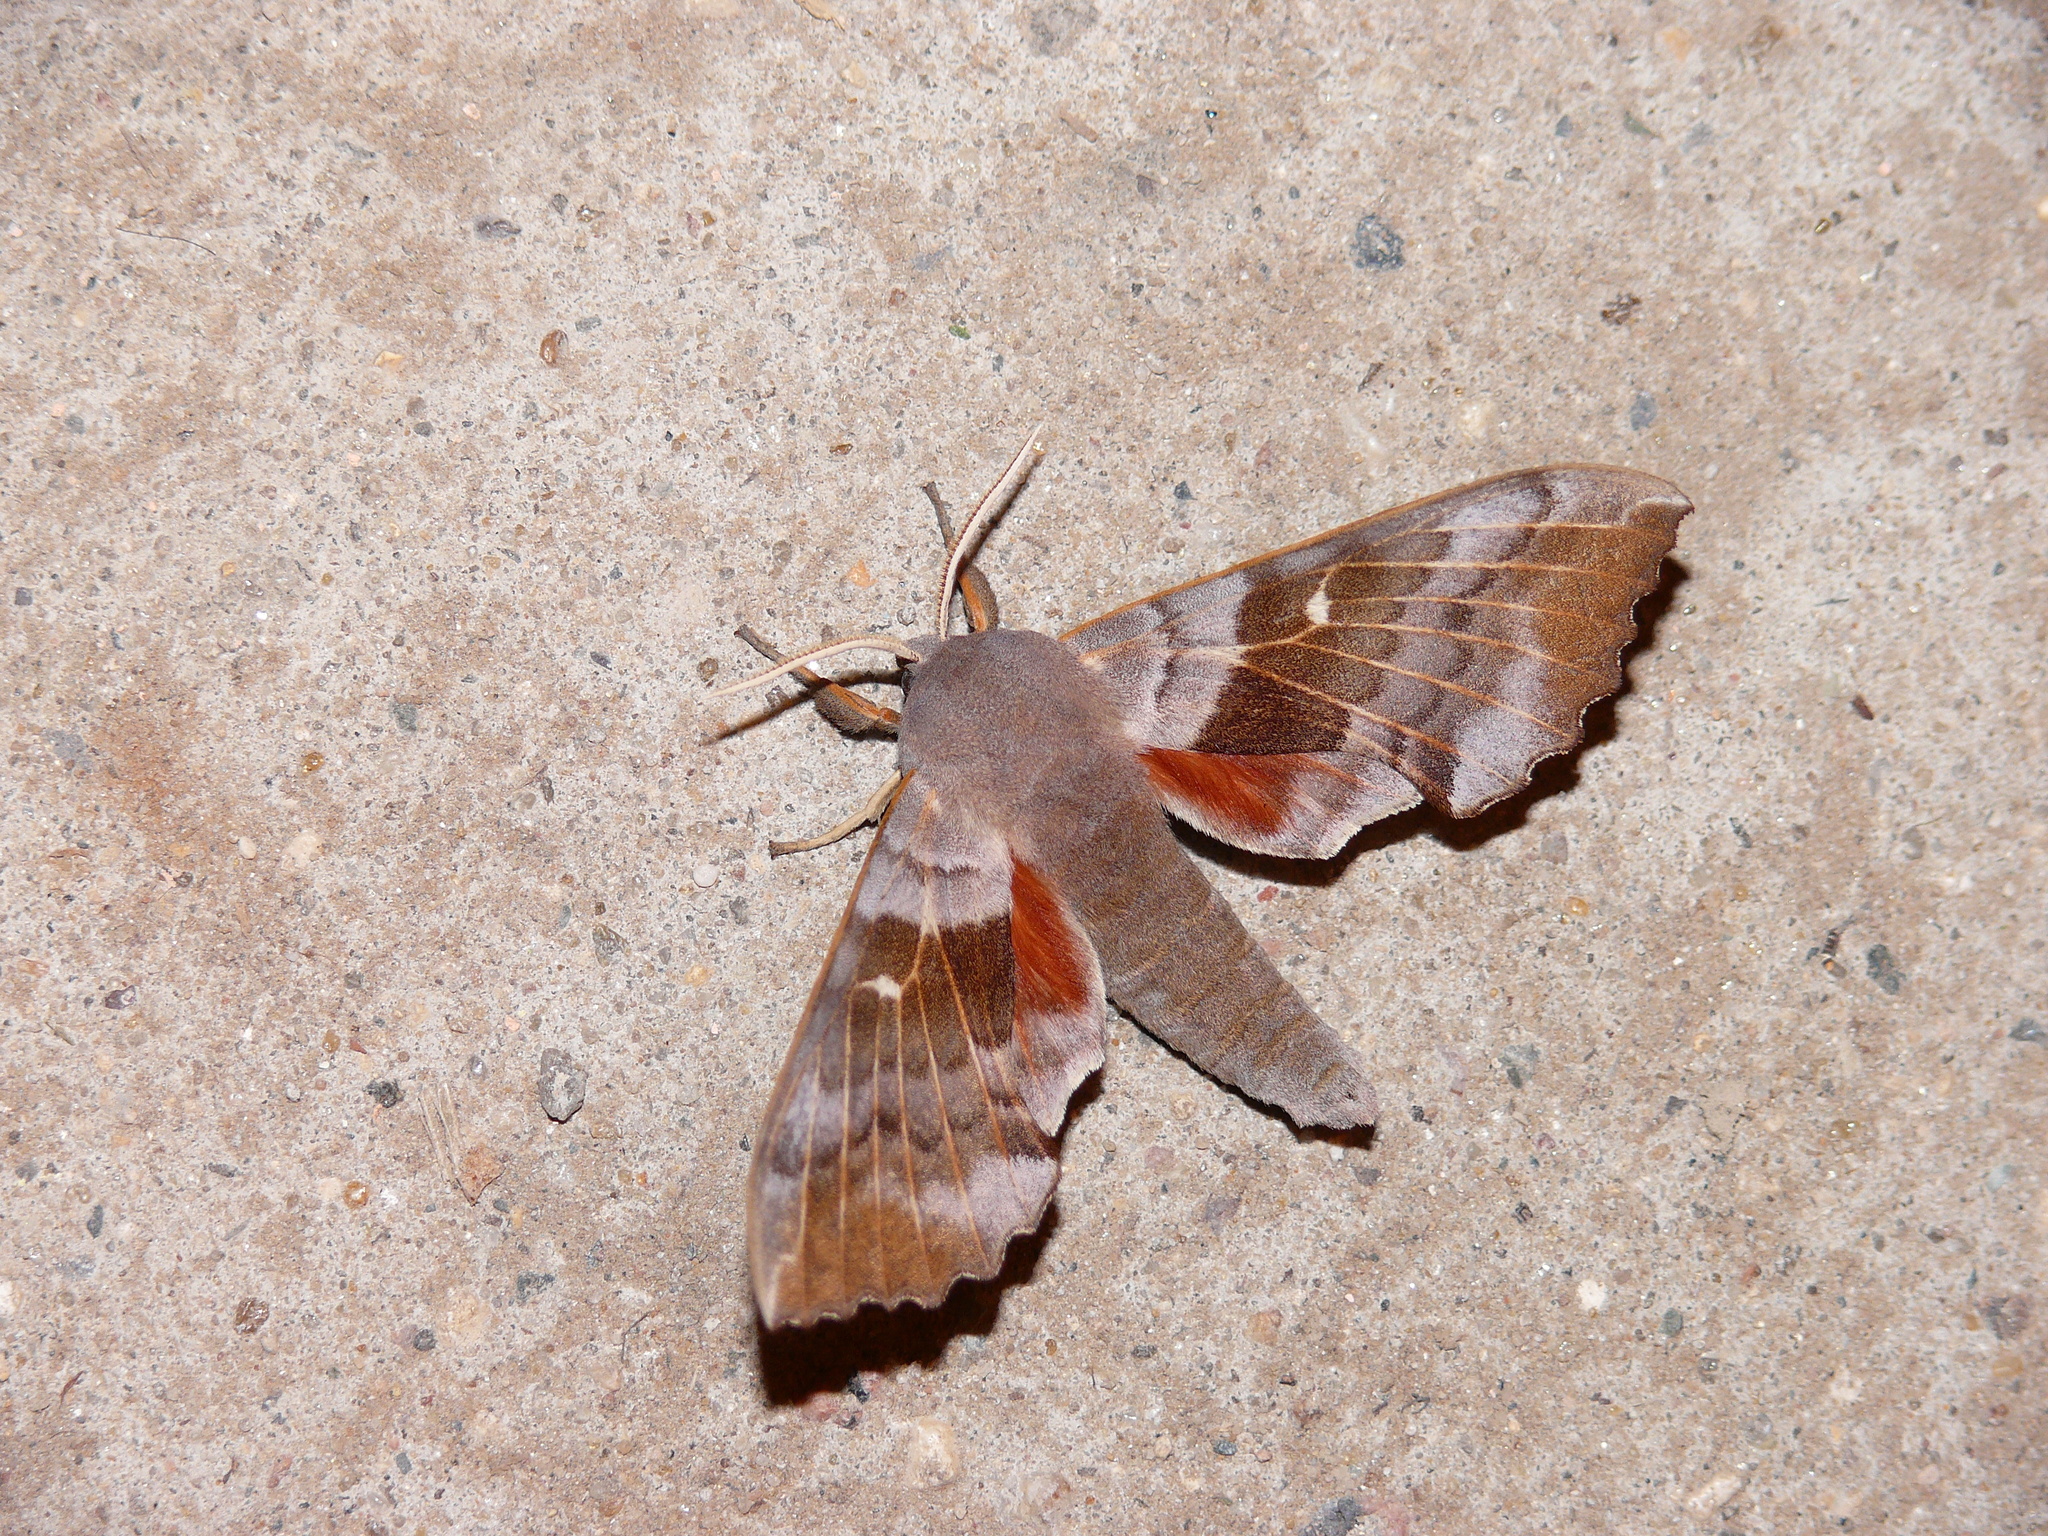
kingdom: Animalia
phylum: Arthropoda
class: Insecta
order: Lepidoptera
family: Sphingidae
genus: Laothoe
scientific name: Laothoe populi
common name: Poplar hawk-moth
